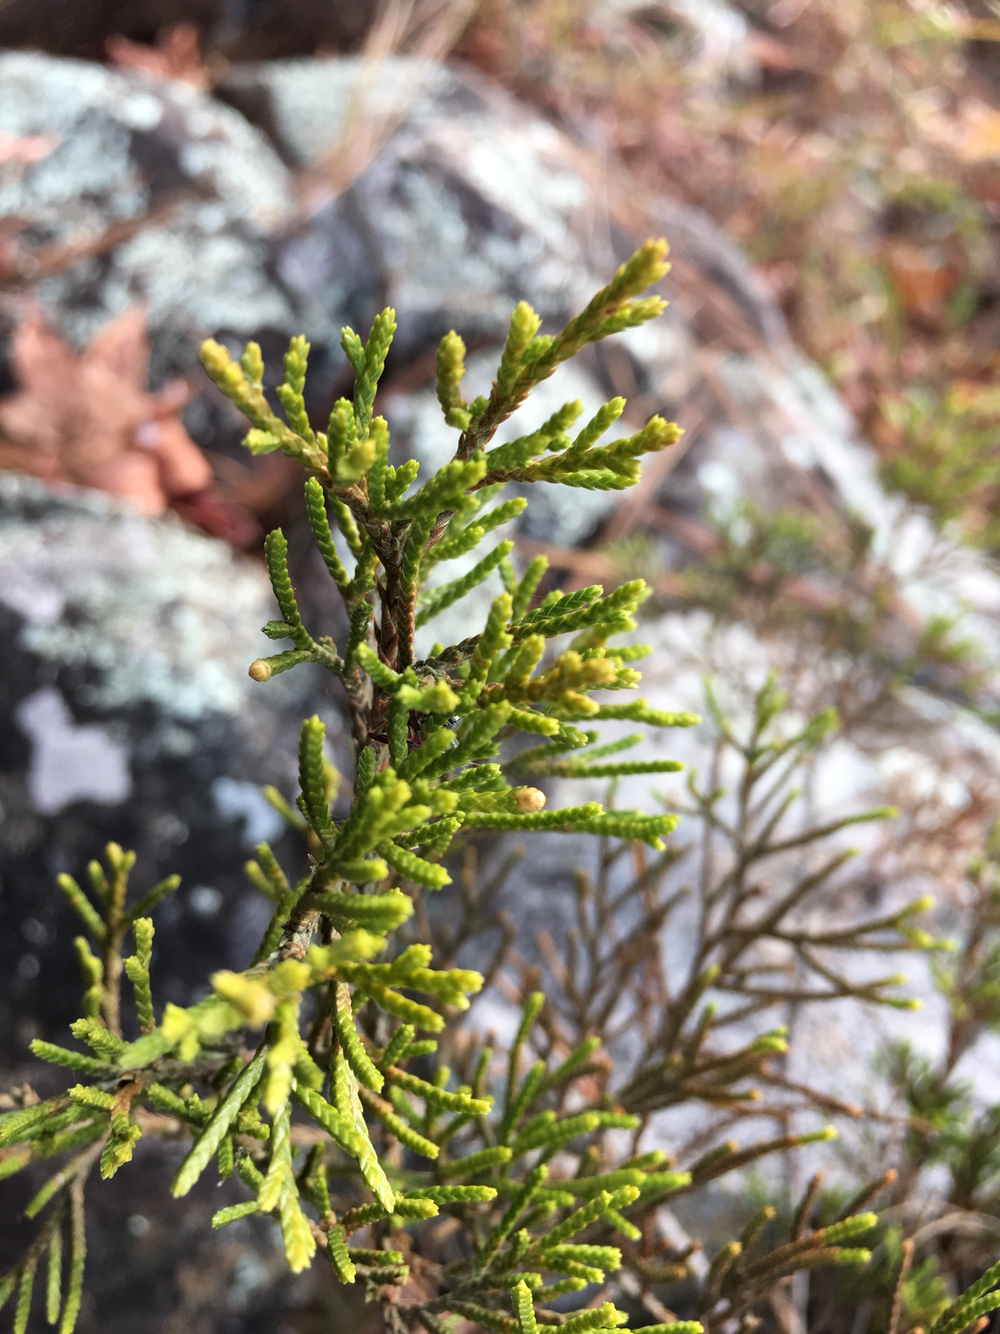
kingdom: Plantae
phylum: Tracheophyta
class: Pinopsida
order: Pinales
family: Cupressaceae
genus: Juniperus
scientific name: Juniperus virginiana
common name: Red juniper
